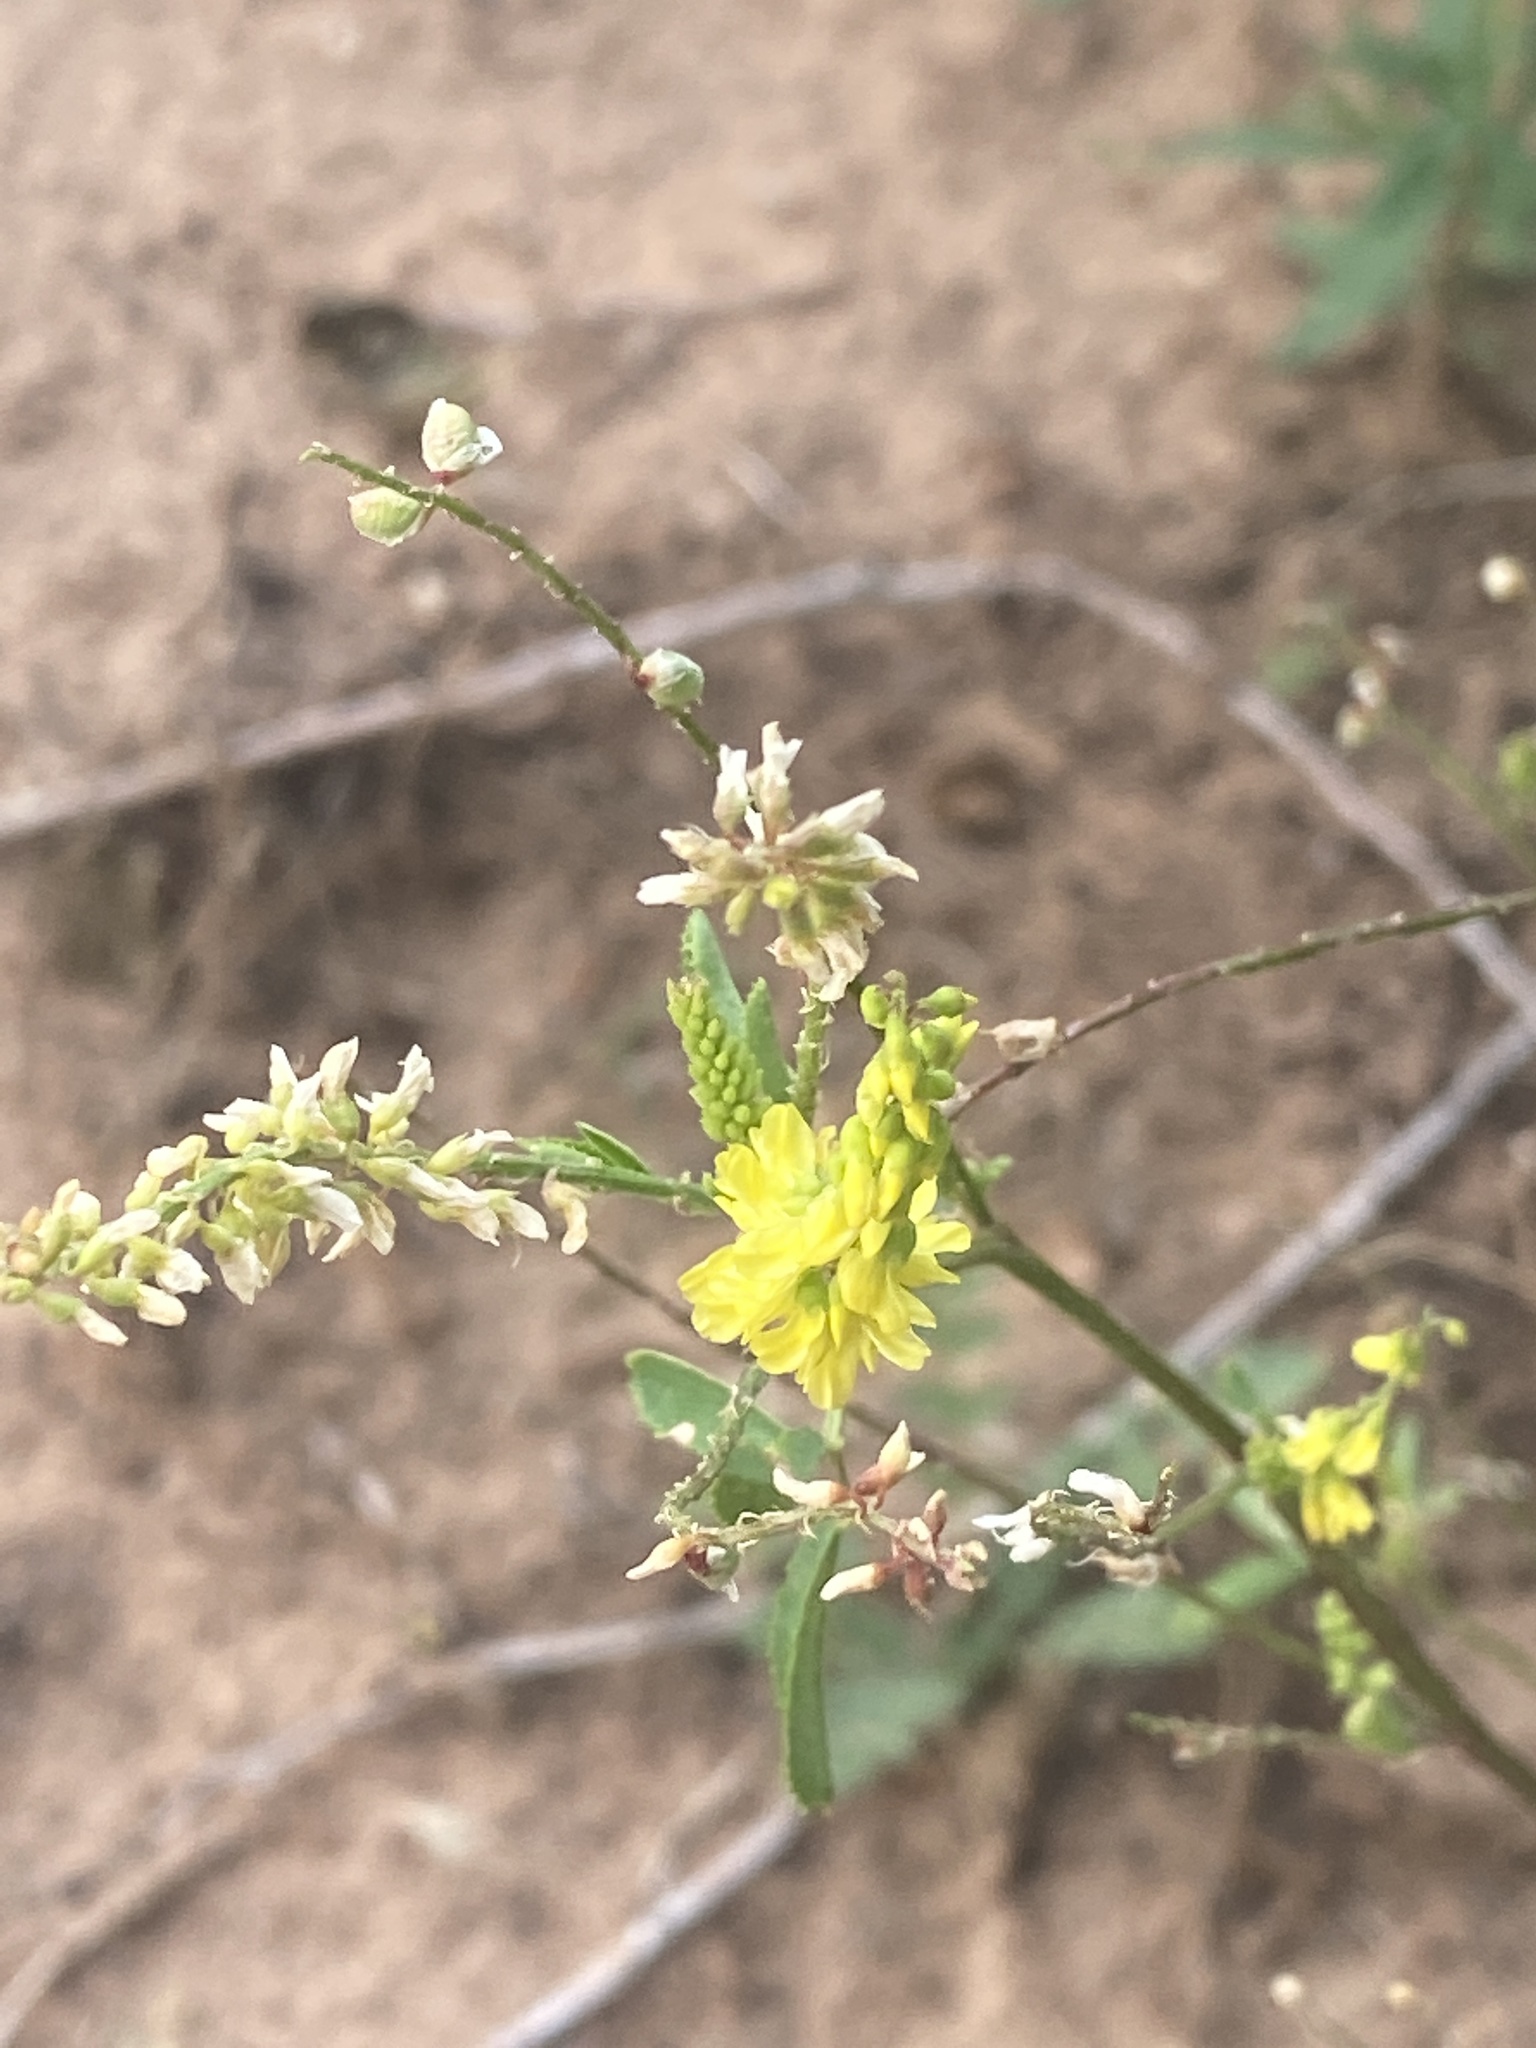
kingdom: Plantae
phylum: Tracheophyta
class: Magnoliopsida
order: Fabales
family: Fabaceae
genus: Melilotus
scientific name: Melilotus officinalis
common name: Sweetclover
